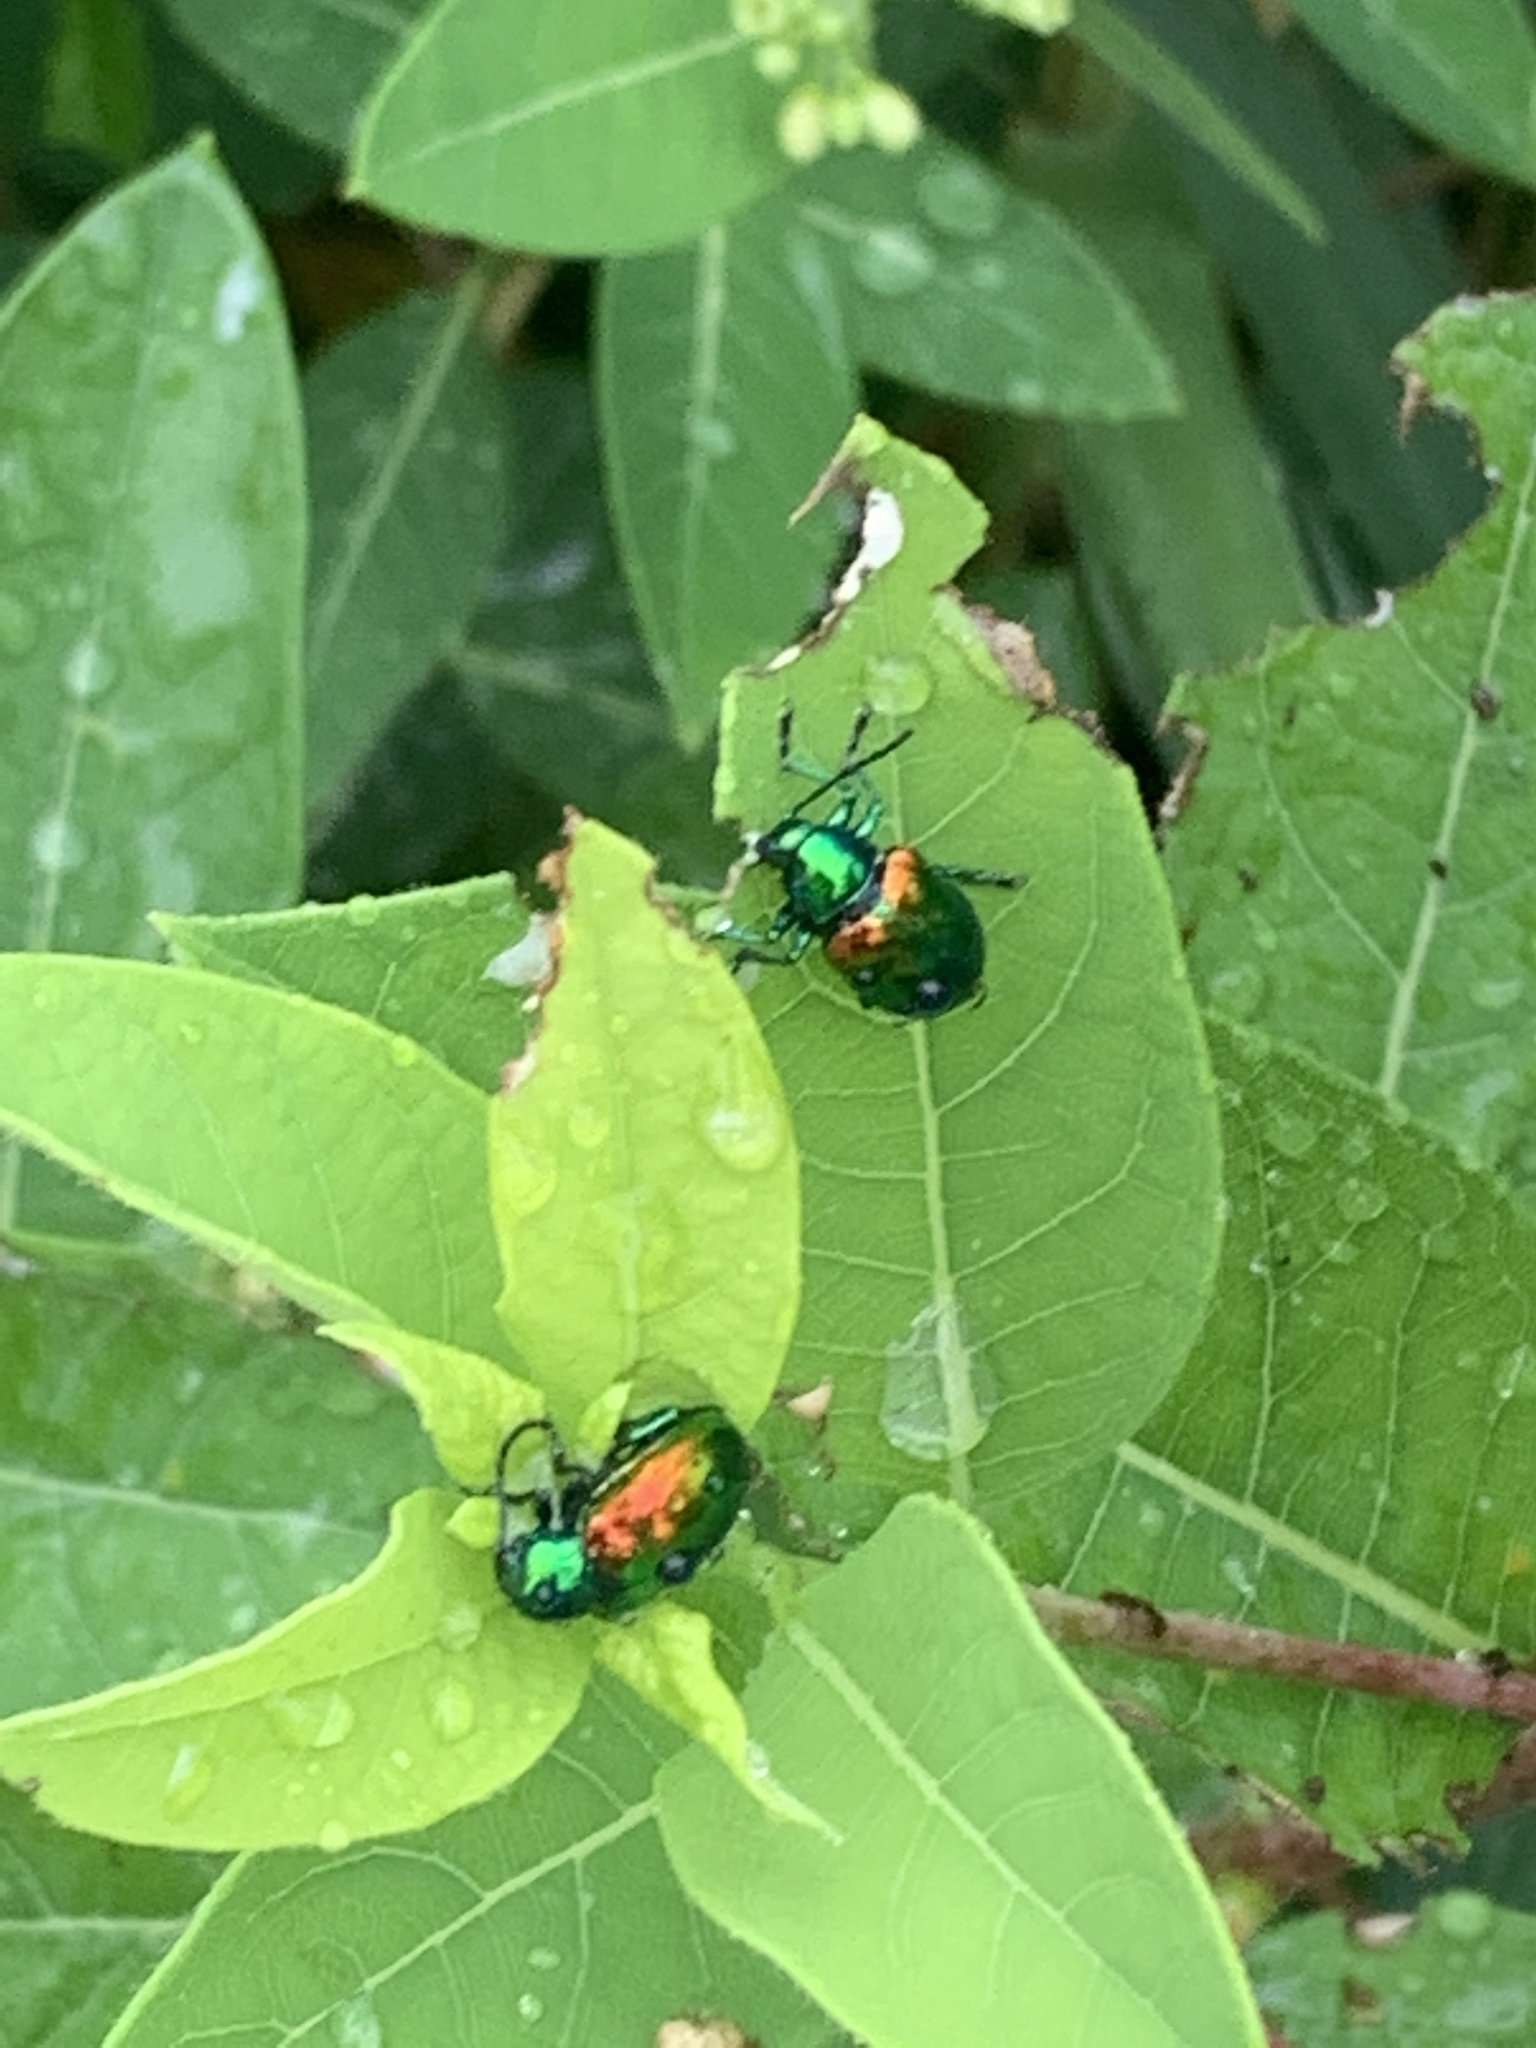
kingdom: Animalia
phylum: Arthropoda
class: Insecta
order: Coleoptera
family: Chrysomelidae
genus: Chrysochus
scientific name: Chrysochus auratus
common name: Dogbane leaf beetle
